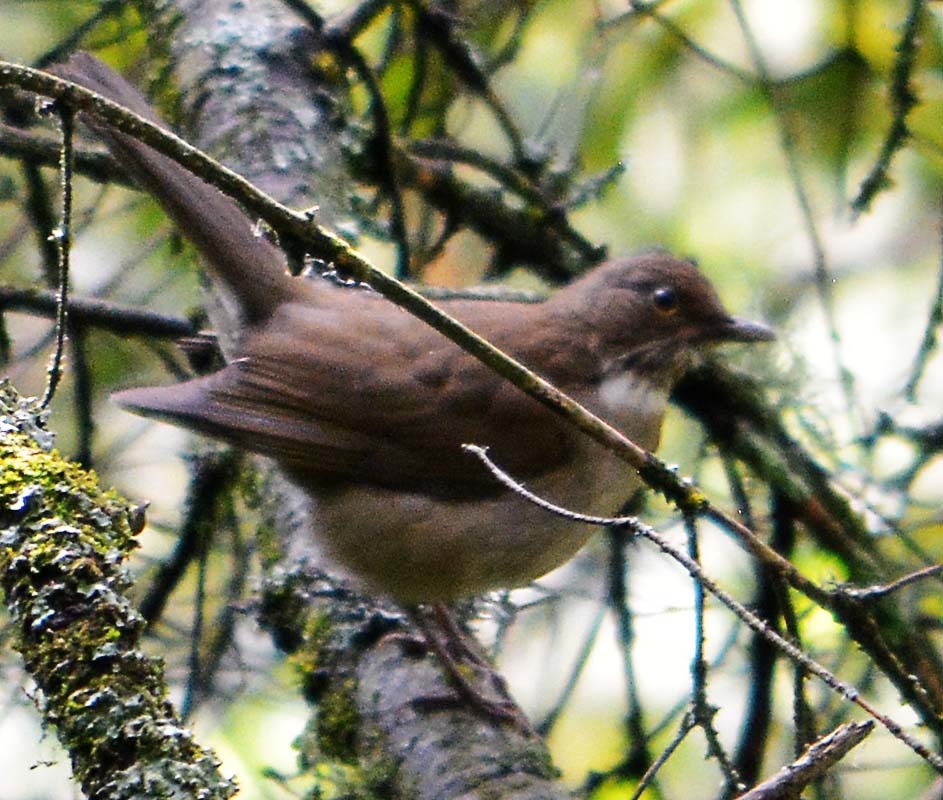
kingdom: Animalia
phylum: Chordata
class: Aves
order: Passeriformes
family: Turdidae
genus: Turdus
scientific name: Turdus assimilis
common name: White-throated thrush
